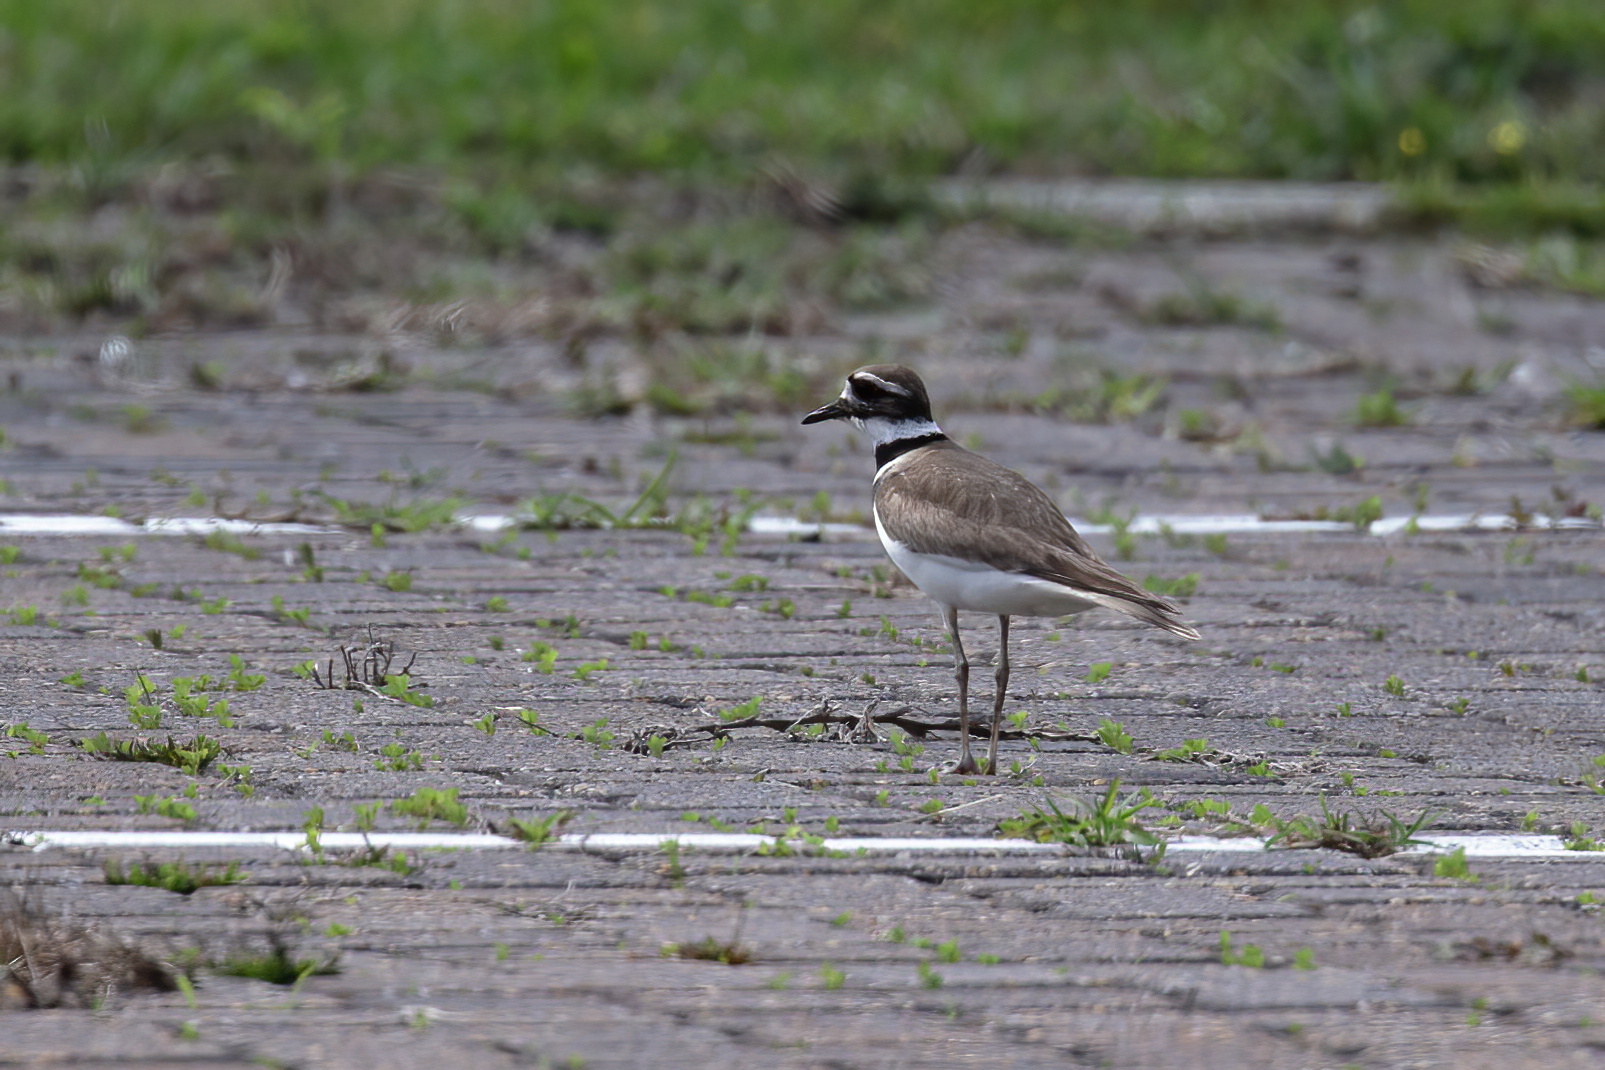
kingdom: Animalia
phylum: Chordata
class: Aves
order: Charadriiformes
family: Charadriidae
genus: Charadrius
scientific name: Charadrius vociferus
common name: Killdeer
